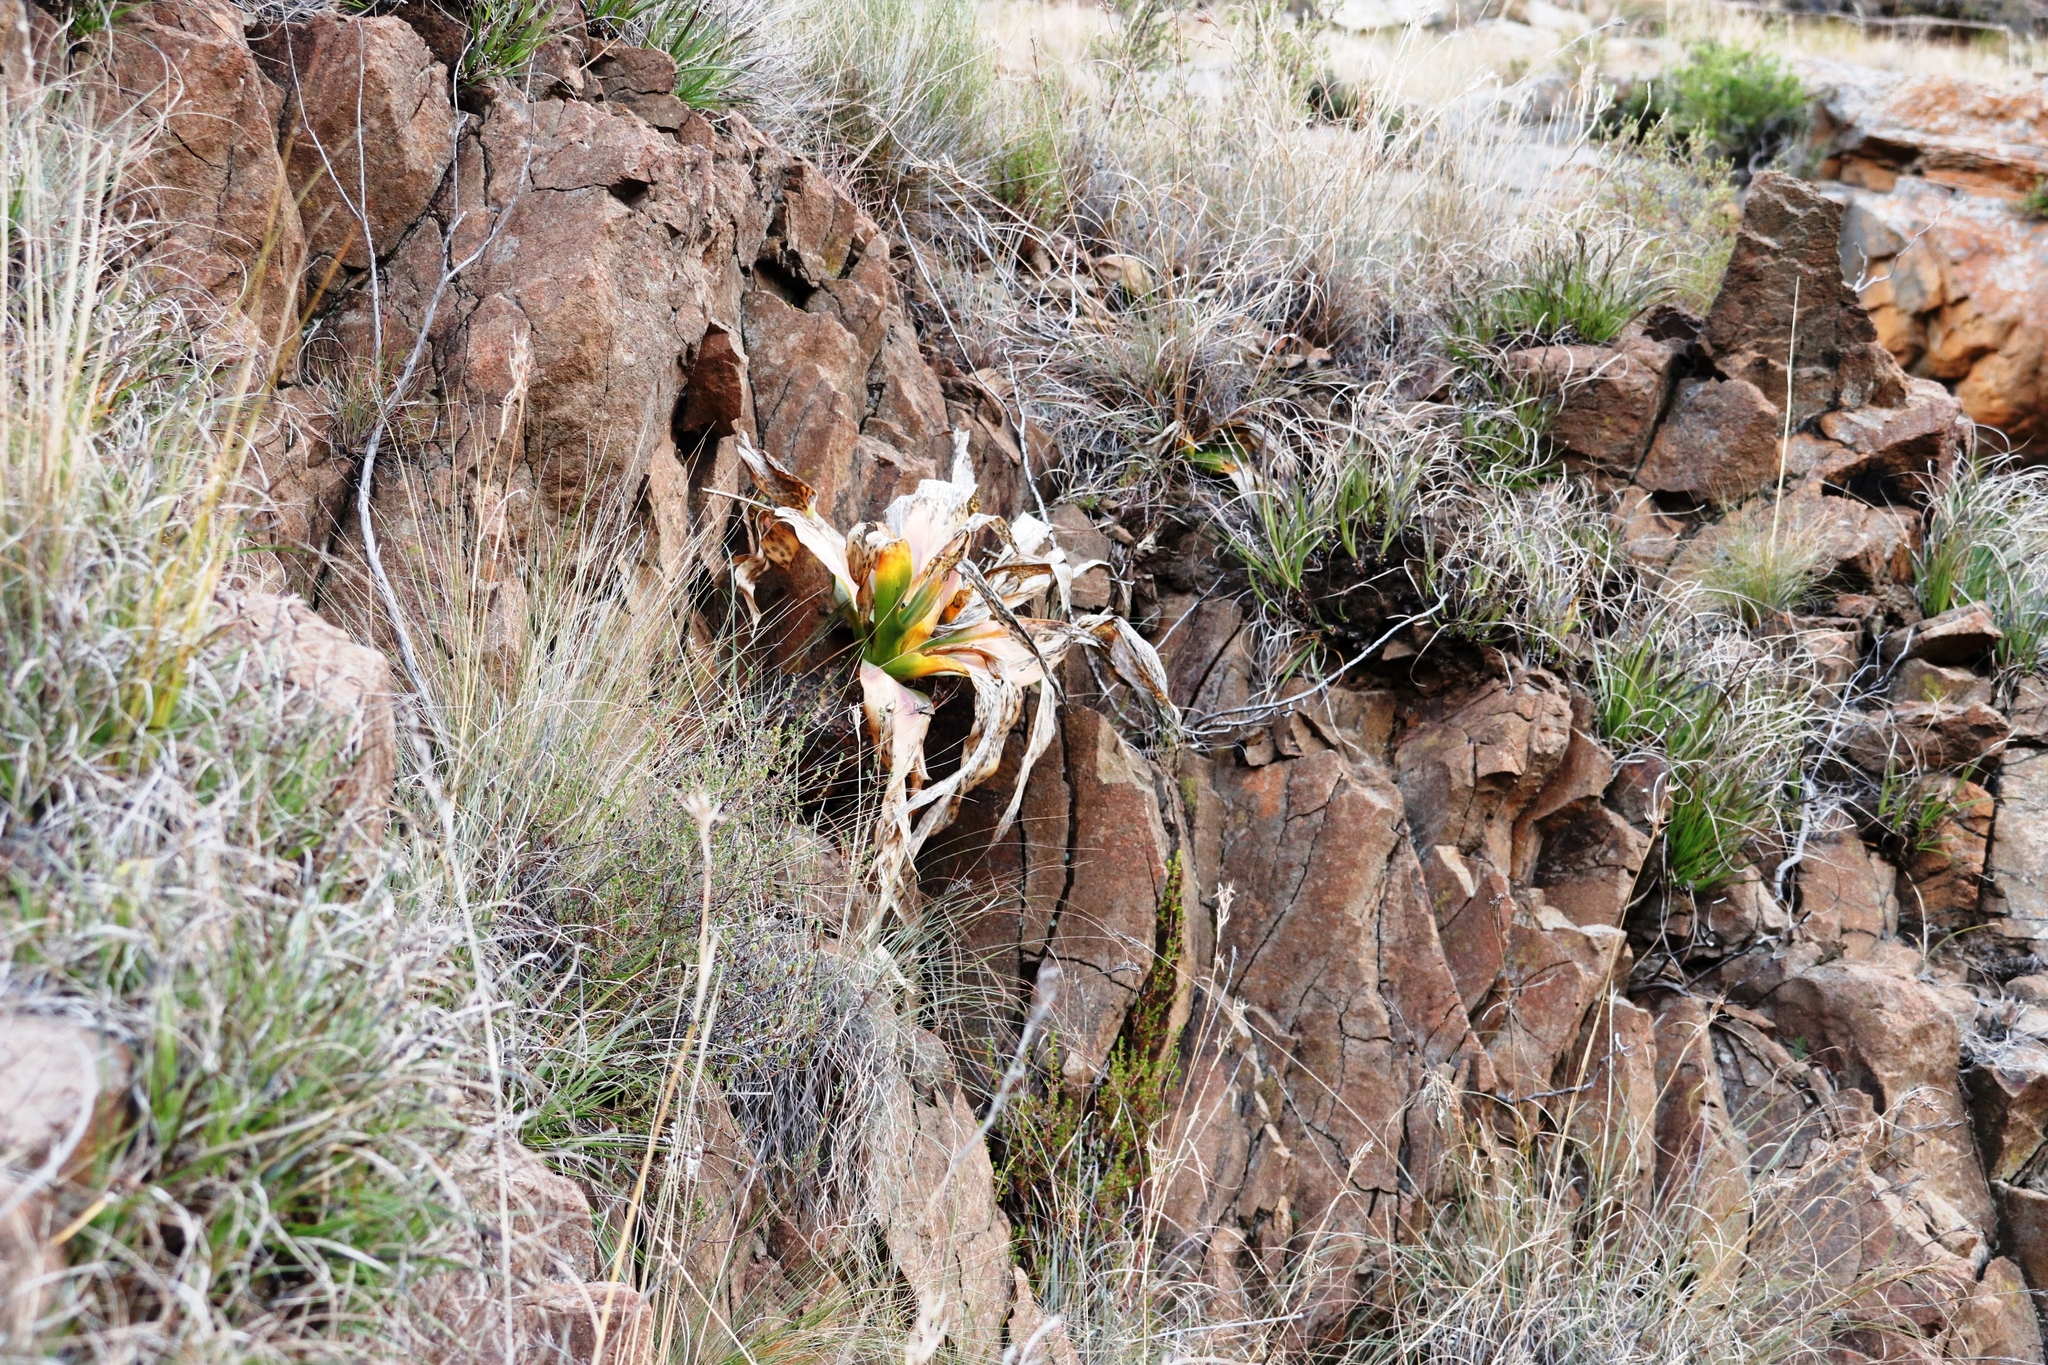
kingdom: Plantae
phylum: Tracheophyta
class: Liliopsida
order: Asparagales
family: Asparagaceae
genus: Merwilla
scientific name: Merwilla plumbea
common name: Blue-squill
